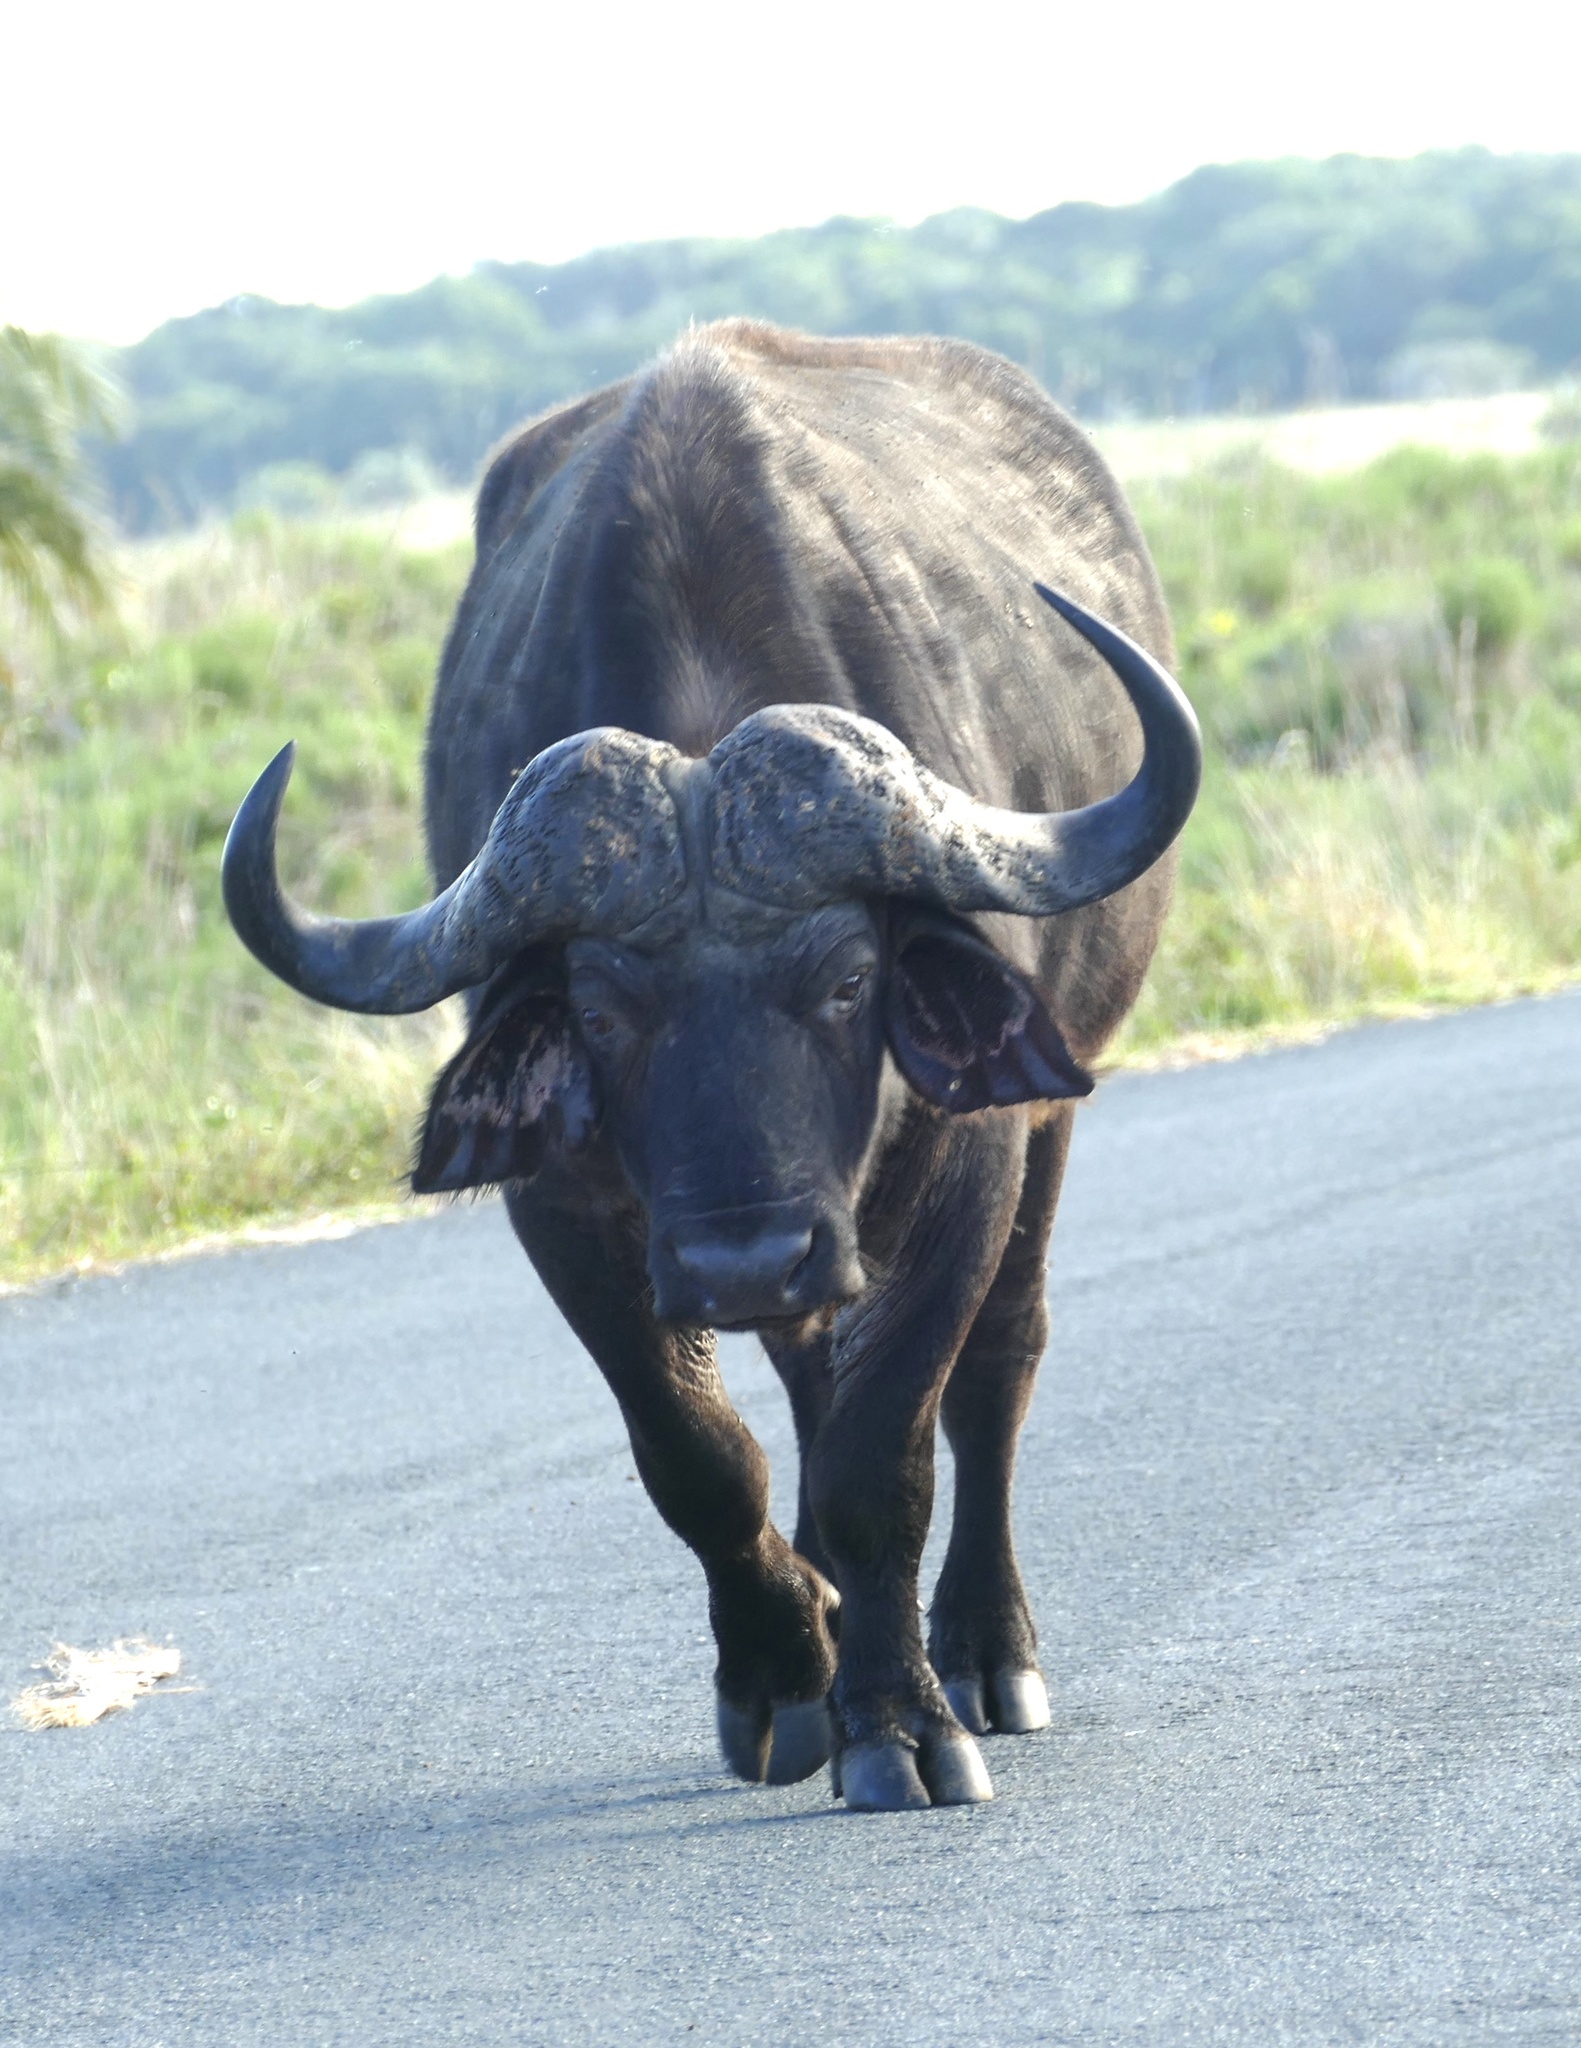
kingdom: Animalia
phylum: Chordata
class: Mammalia
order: Artiodactyla
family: Bovidae
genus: Syncerus
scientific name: Syncerus caffer
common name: African buffalo
